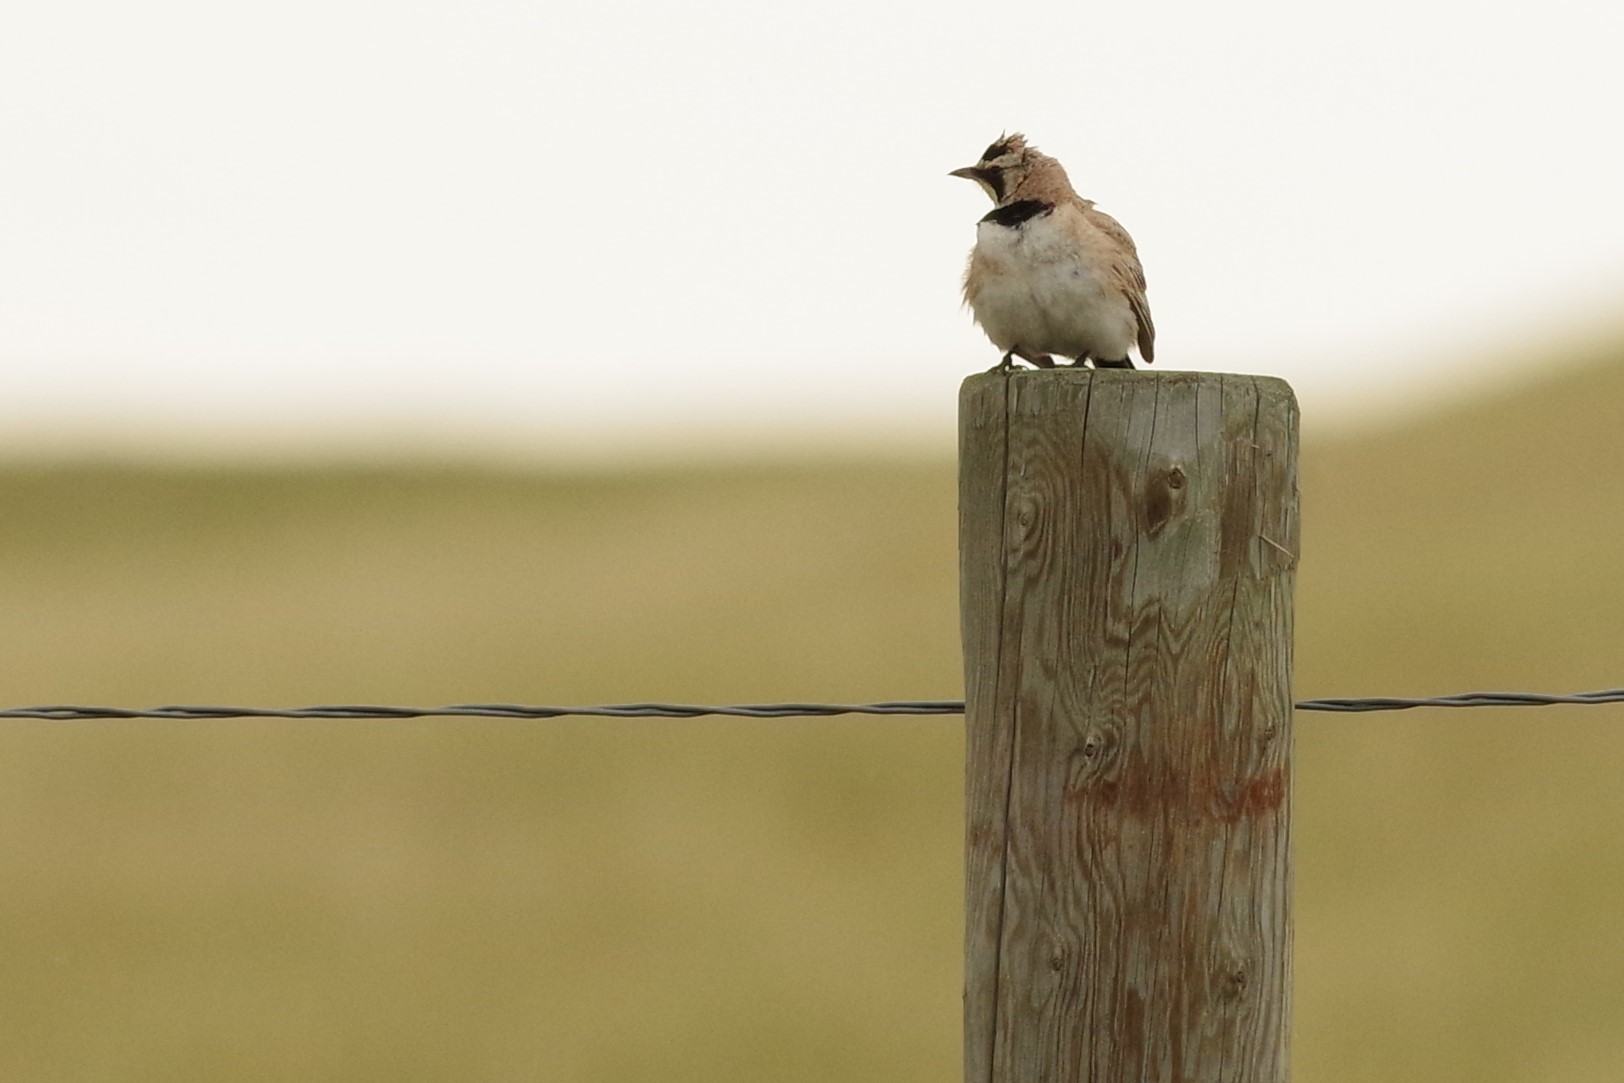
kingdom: Animalia
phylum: Chordata
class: Aves
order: Passeriformes
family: Alaudidae
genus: Eremophila
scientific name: Eremophila alpestris
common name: Horned lark
